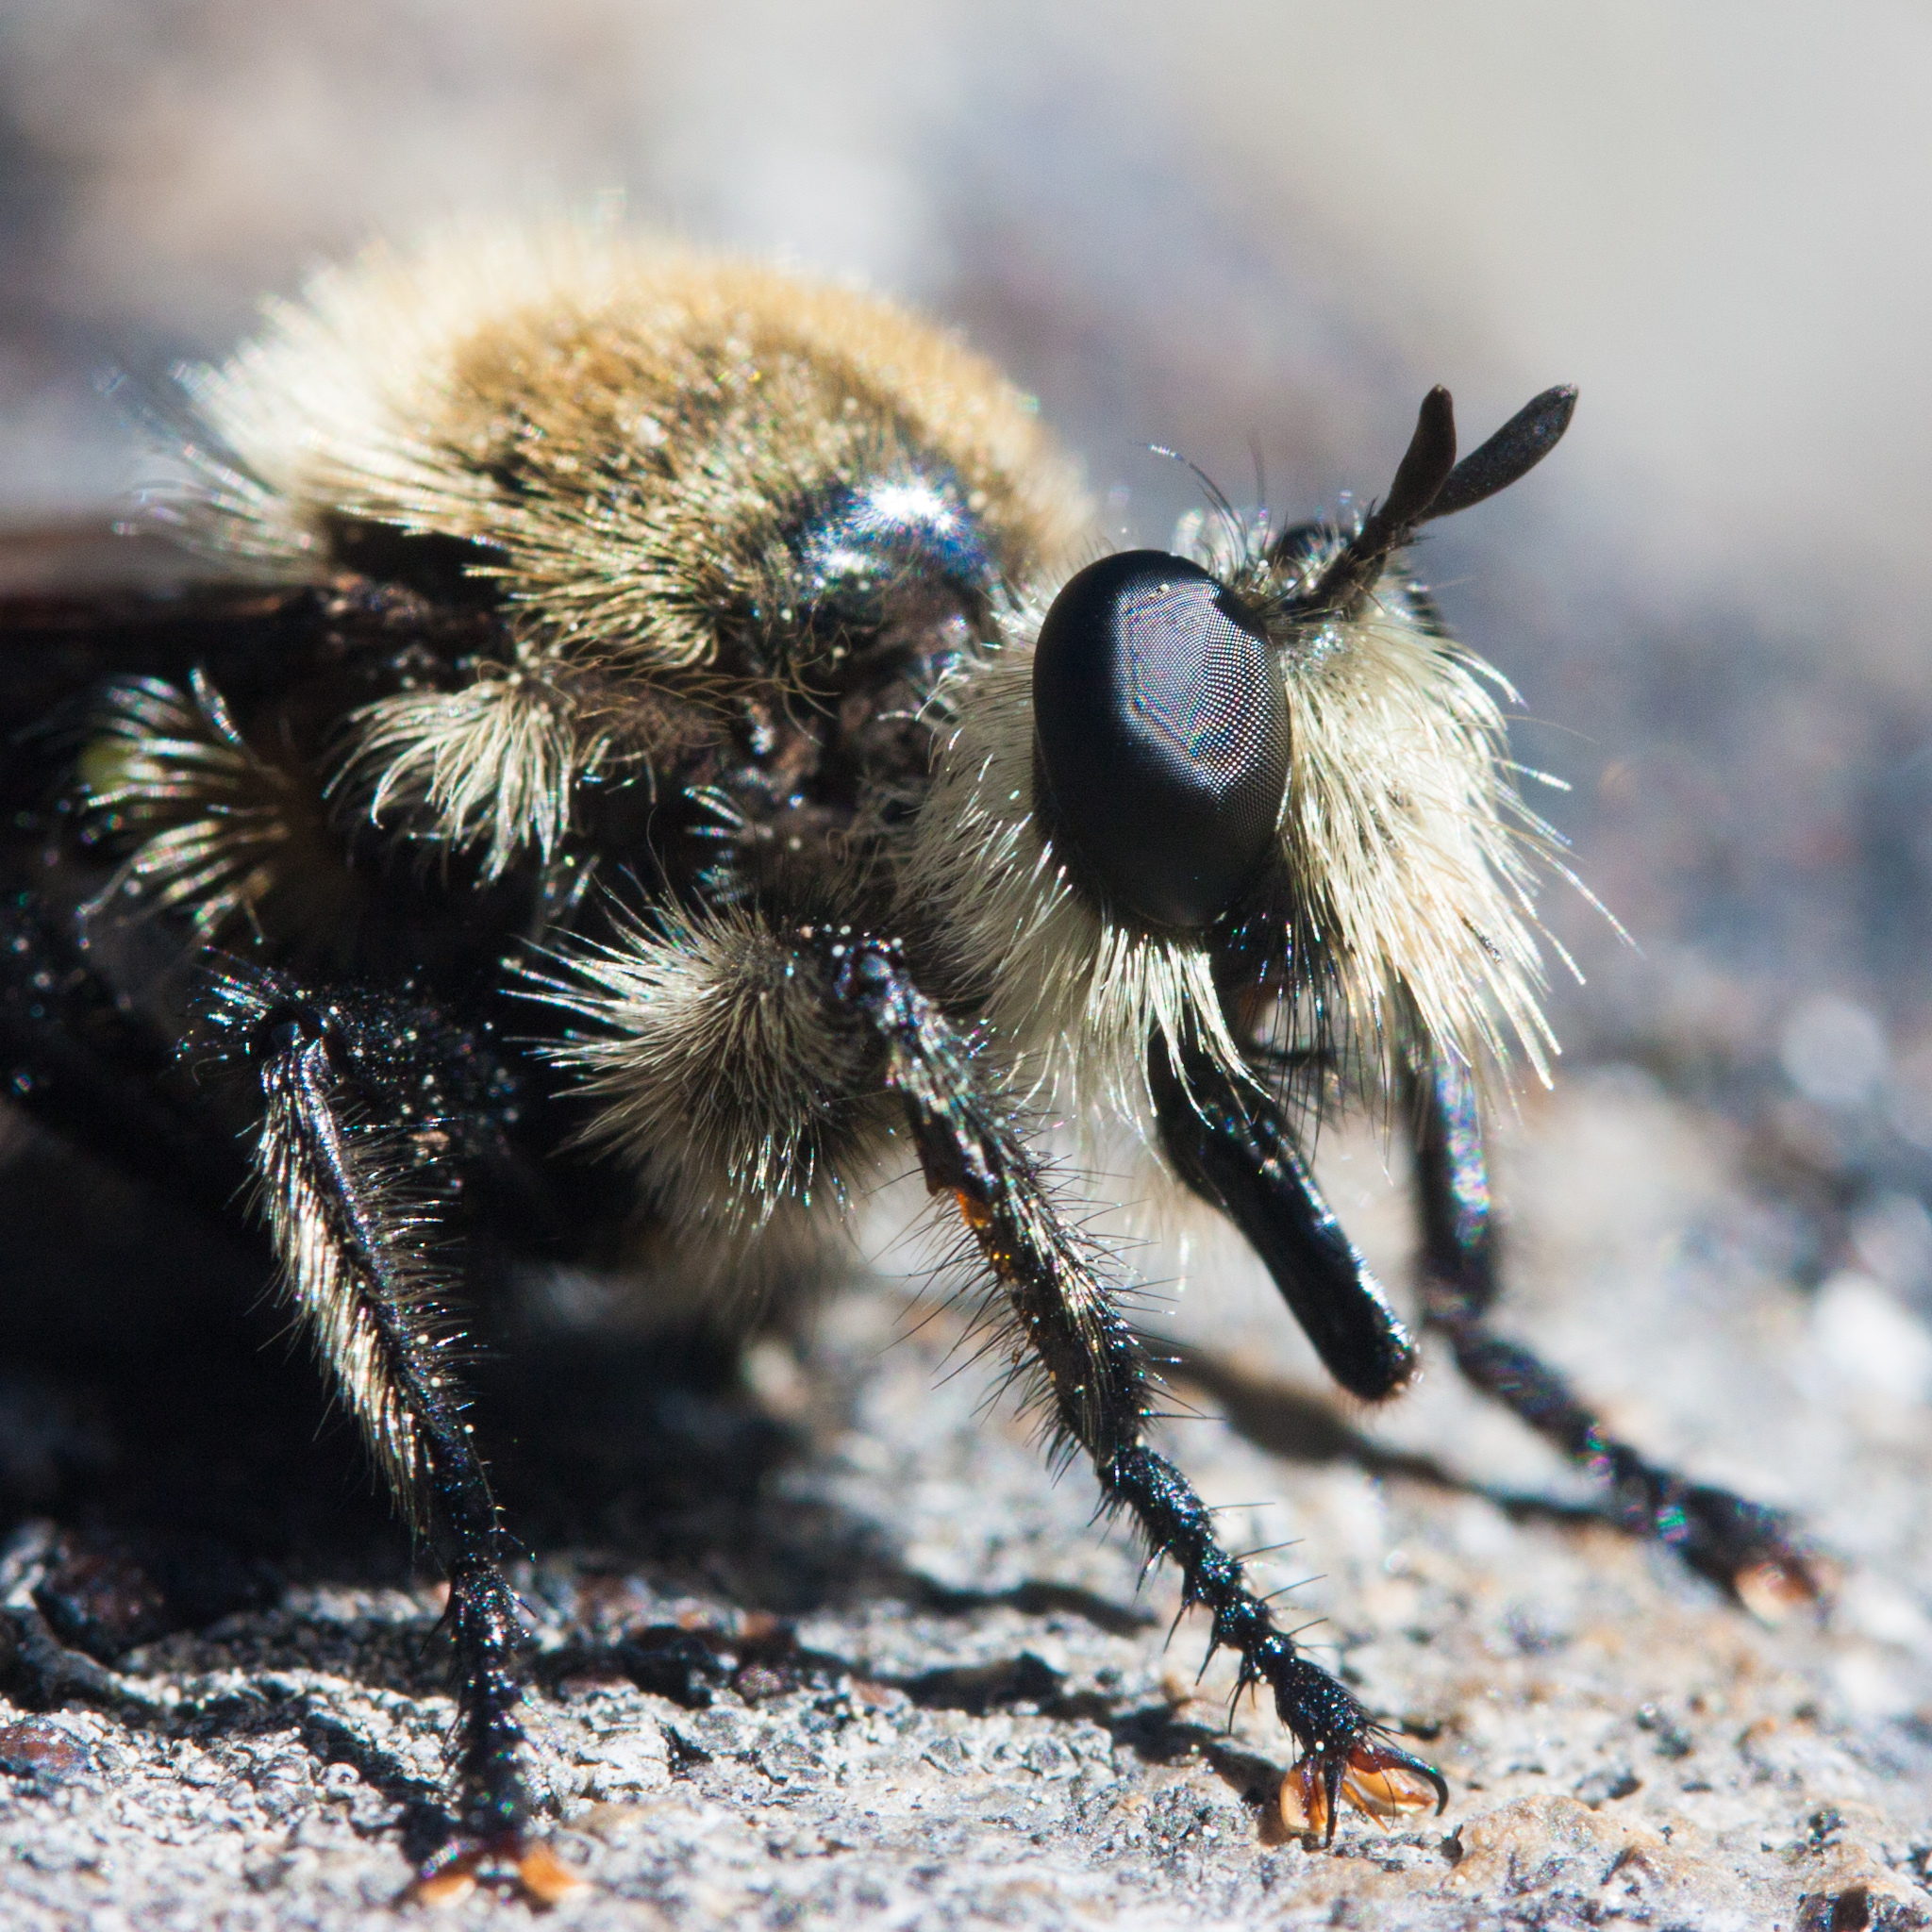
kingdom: Animalia
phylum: Arthropoda
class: Insecta
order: Diptera
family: Asilidae
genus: Laphria
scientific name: Laphria astur
